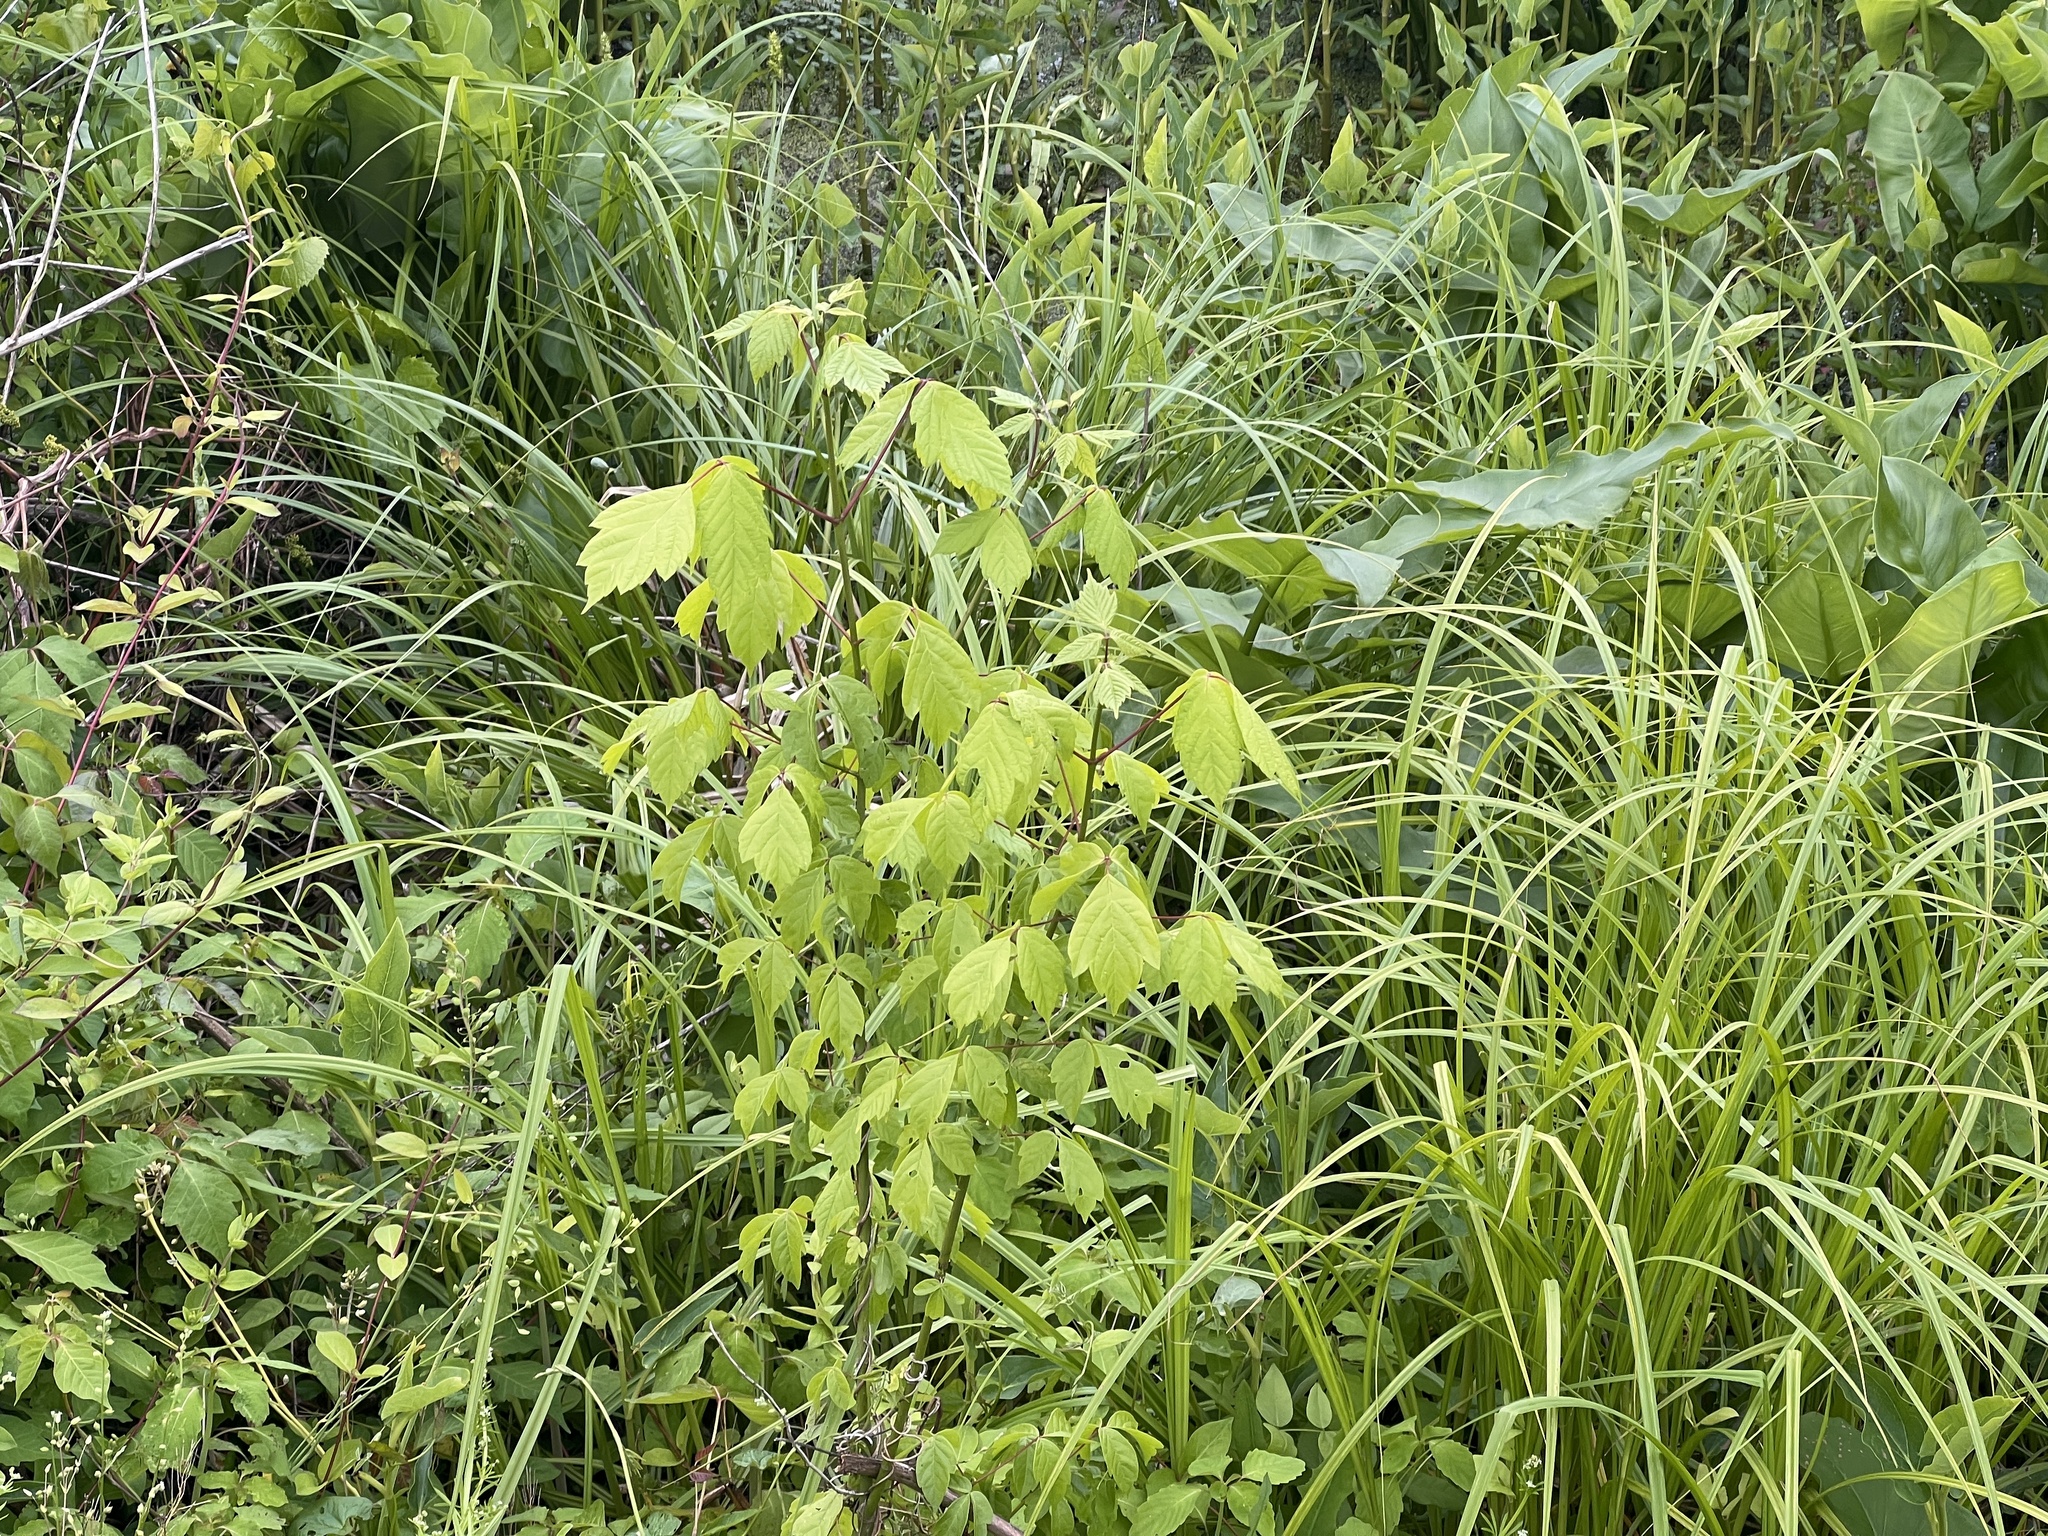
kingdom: Plantae
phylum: Tracheophyta
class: Magnoliopsida
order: Sapindales
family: Sapindaceae
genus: Acer
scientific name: Acer negundo
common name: Ashleaf maple
